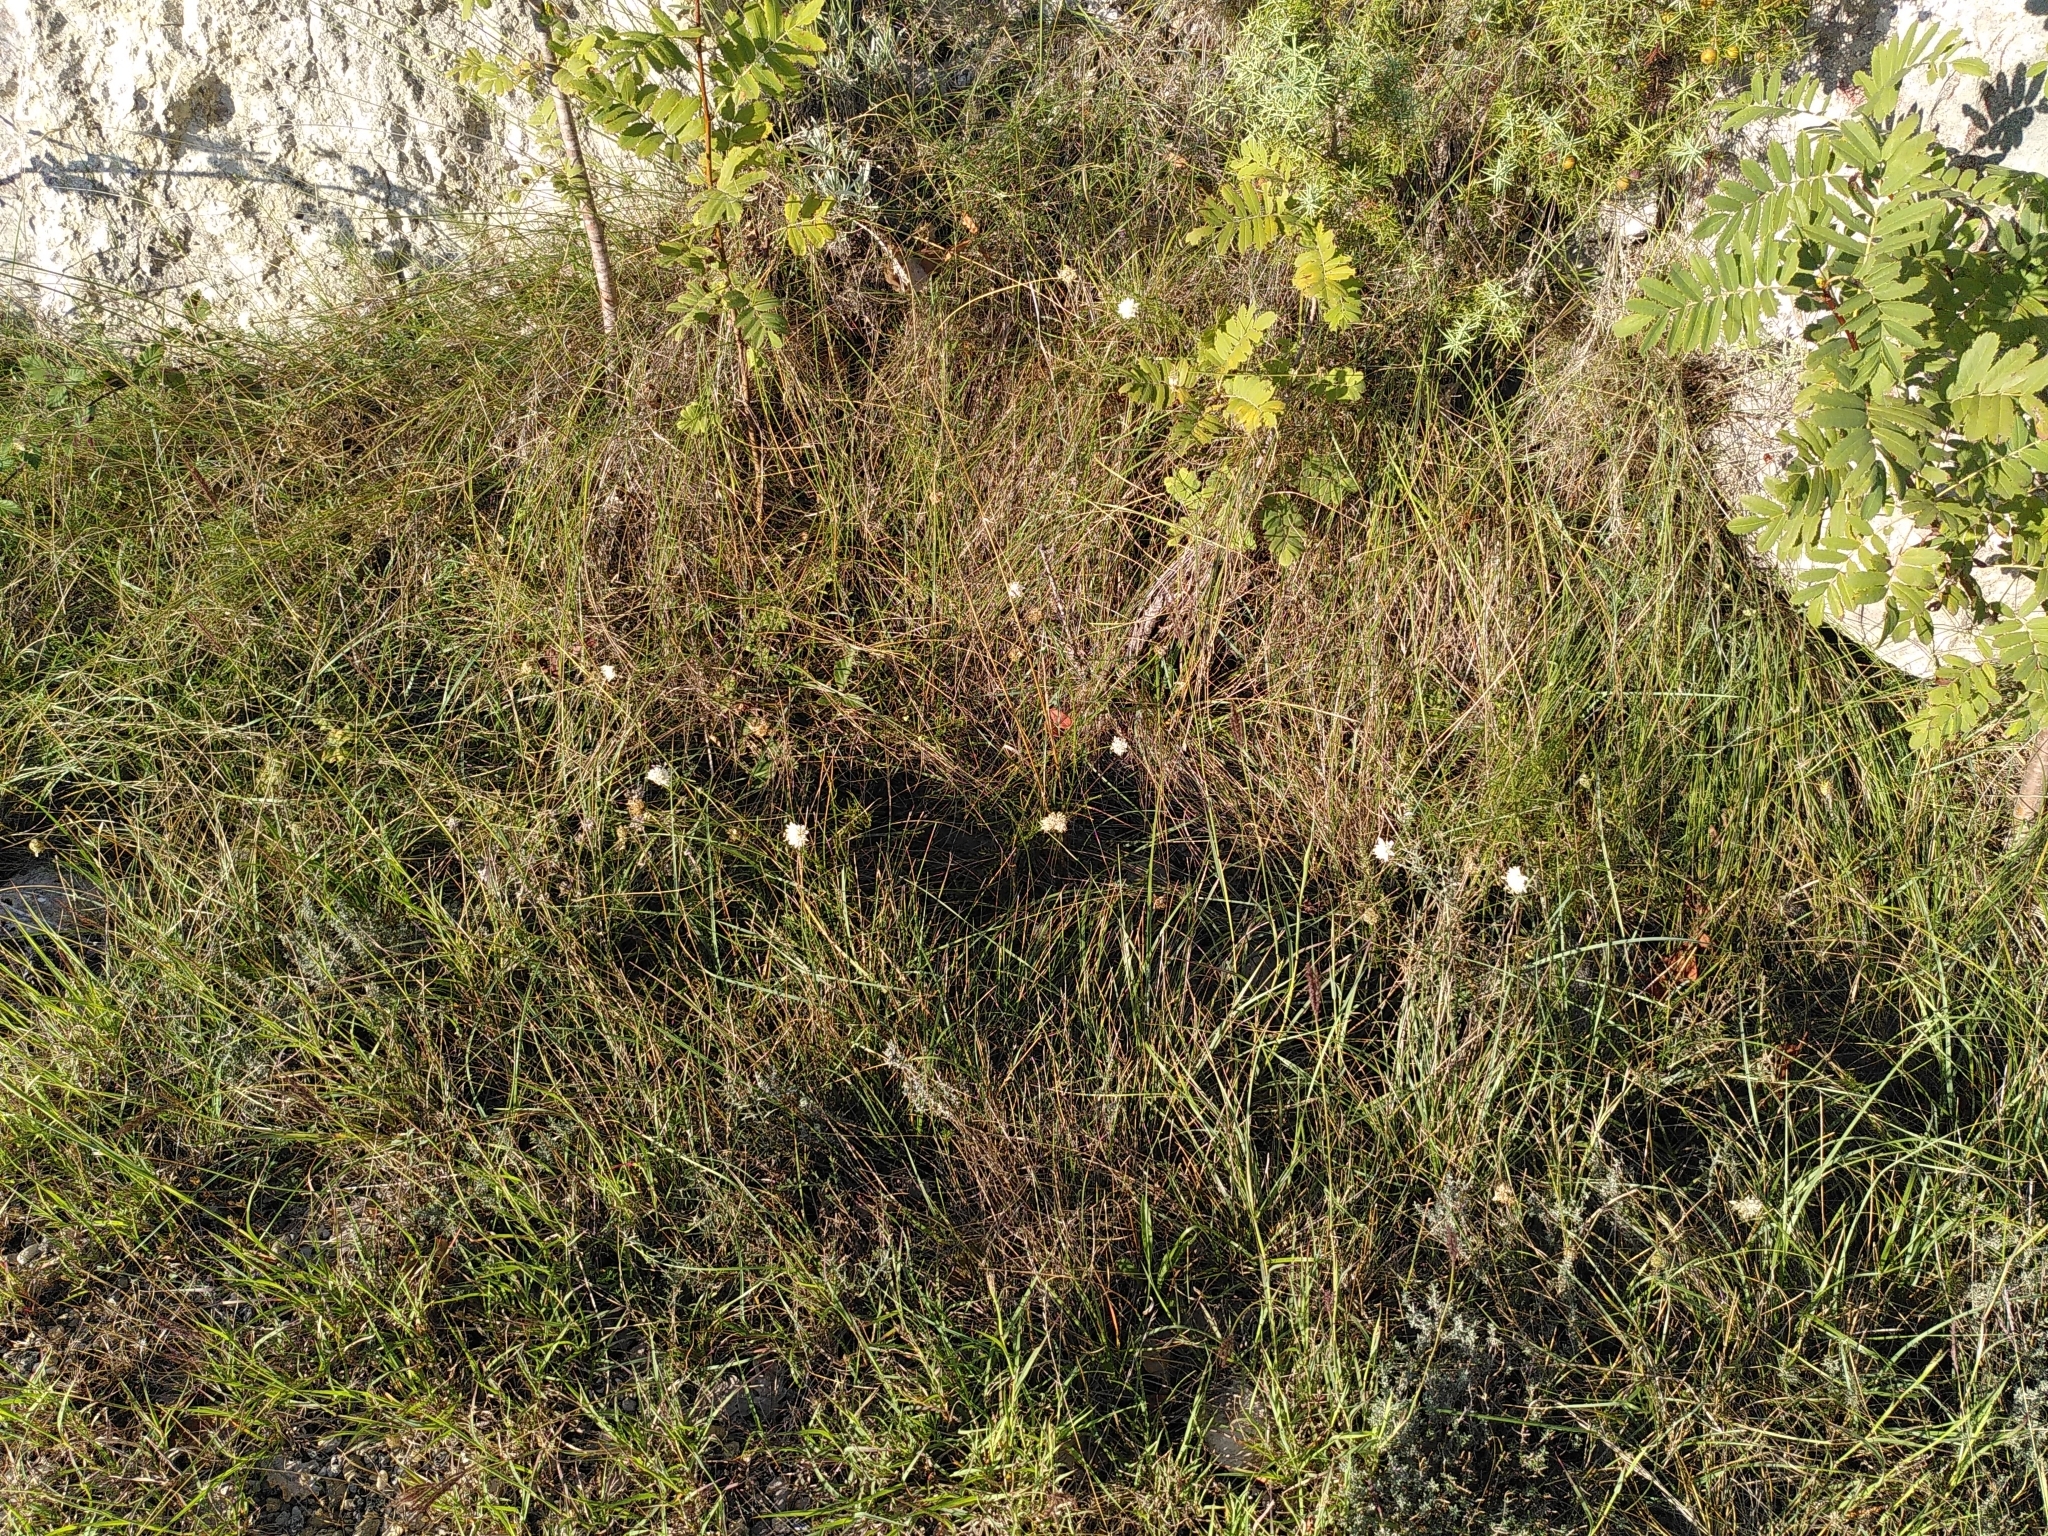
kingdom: Plantae
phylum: Tracheophyta
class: Magnoliopsida
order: Dipsacales
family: Caprifoliaceae
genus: Cephalaria
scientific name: Cephalaria leucantha
